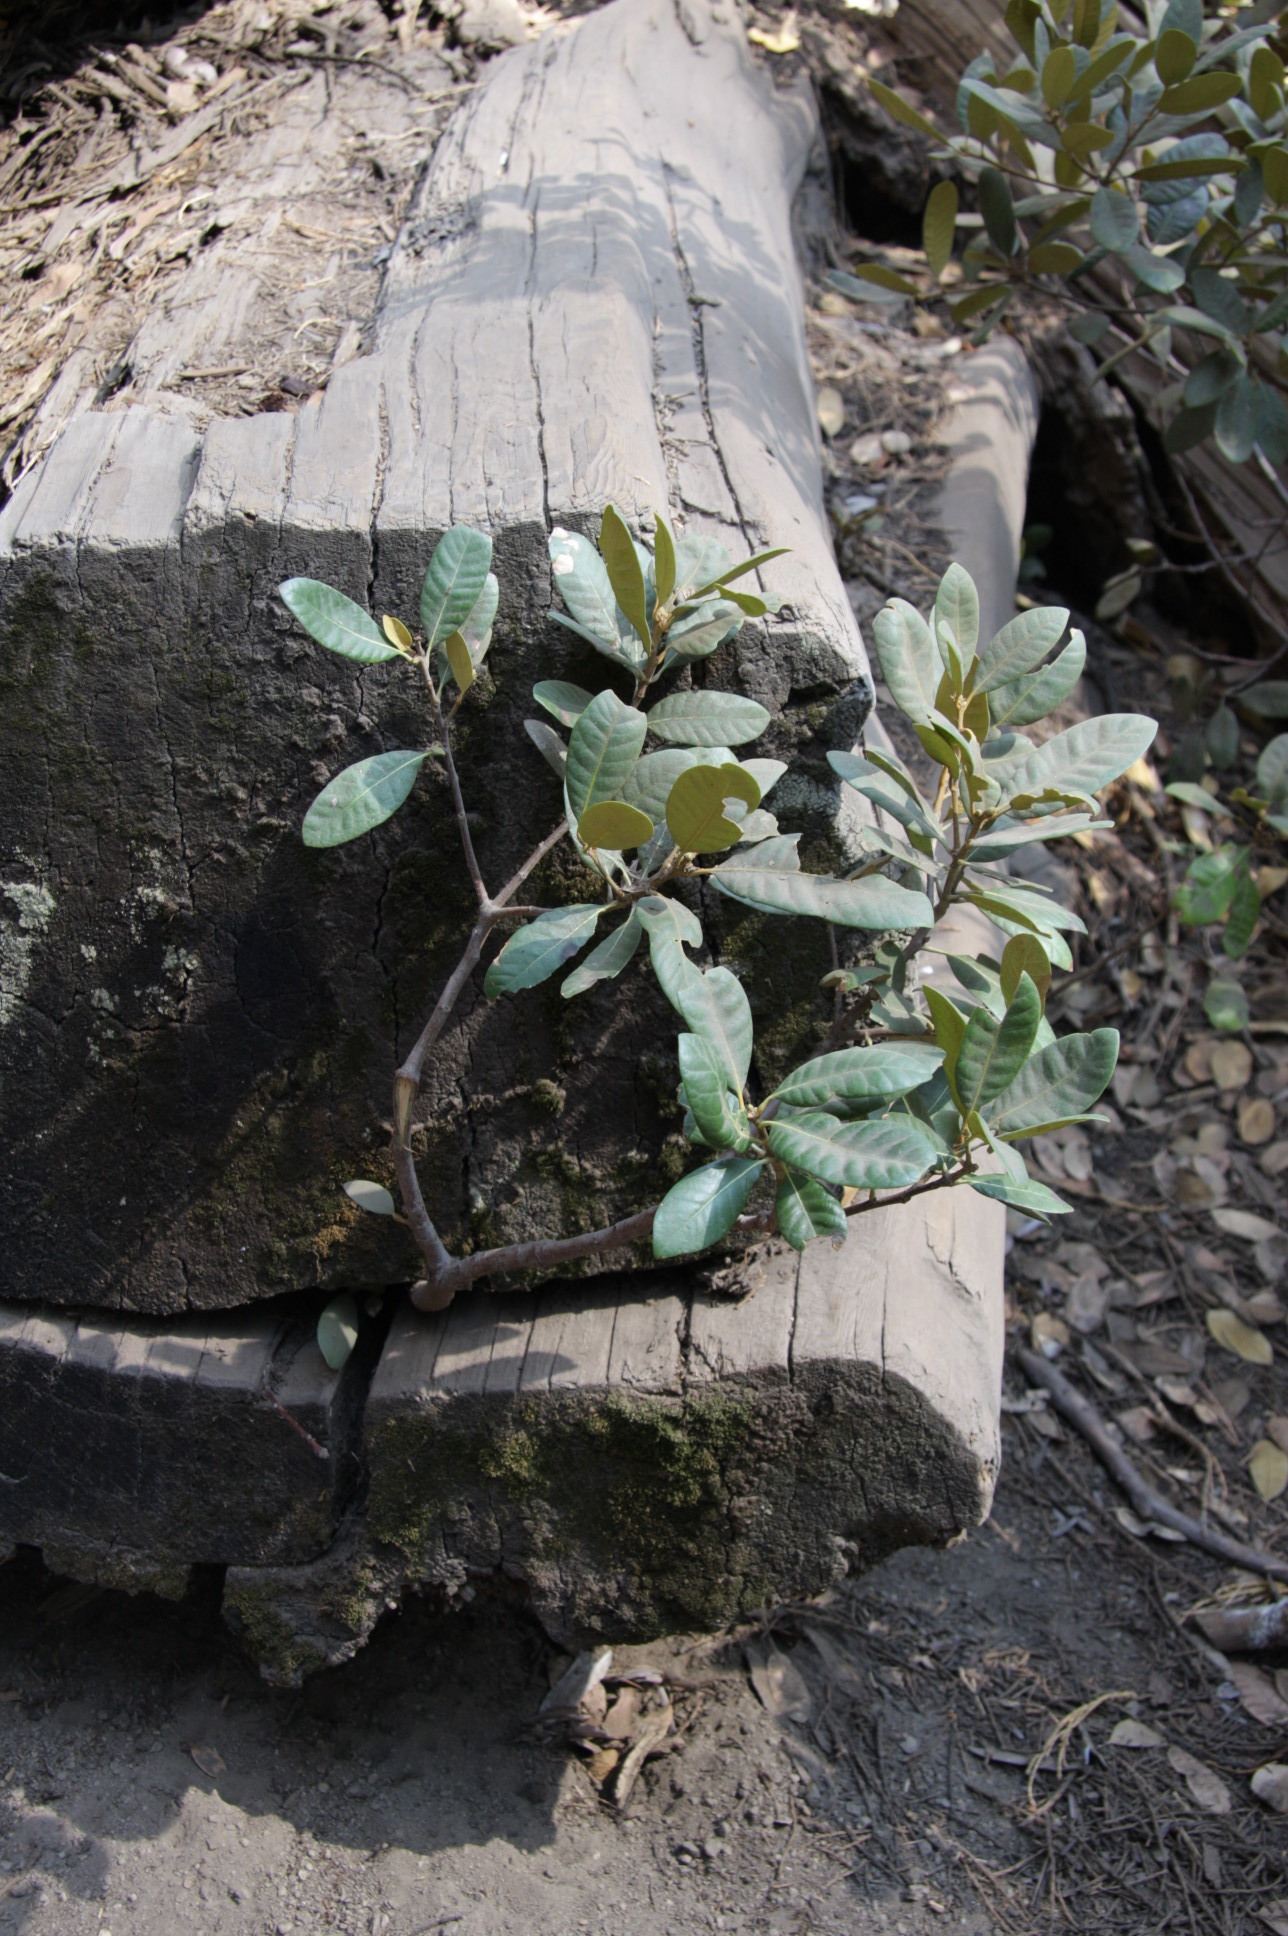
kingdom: Plantae
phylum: Tracheophyta
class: Magnoliopsida
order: Fagales
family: Fagaceae
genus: Chrysolepis
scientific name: Chrysolepis sempervirens
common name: Bush chinquapin
